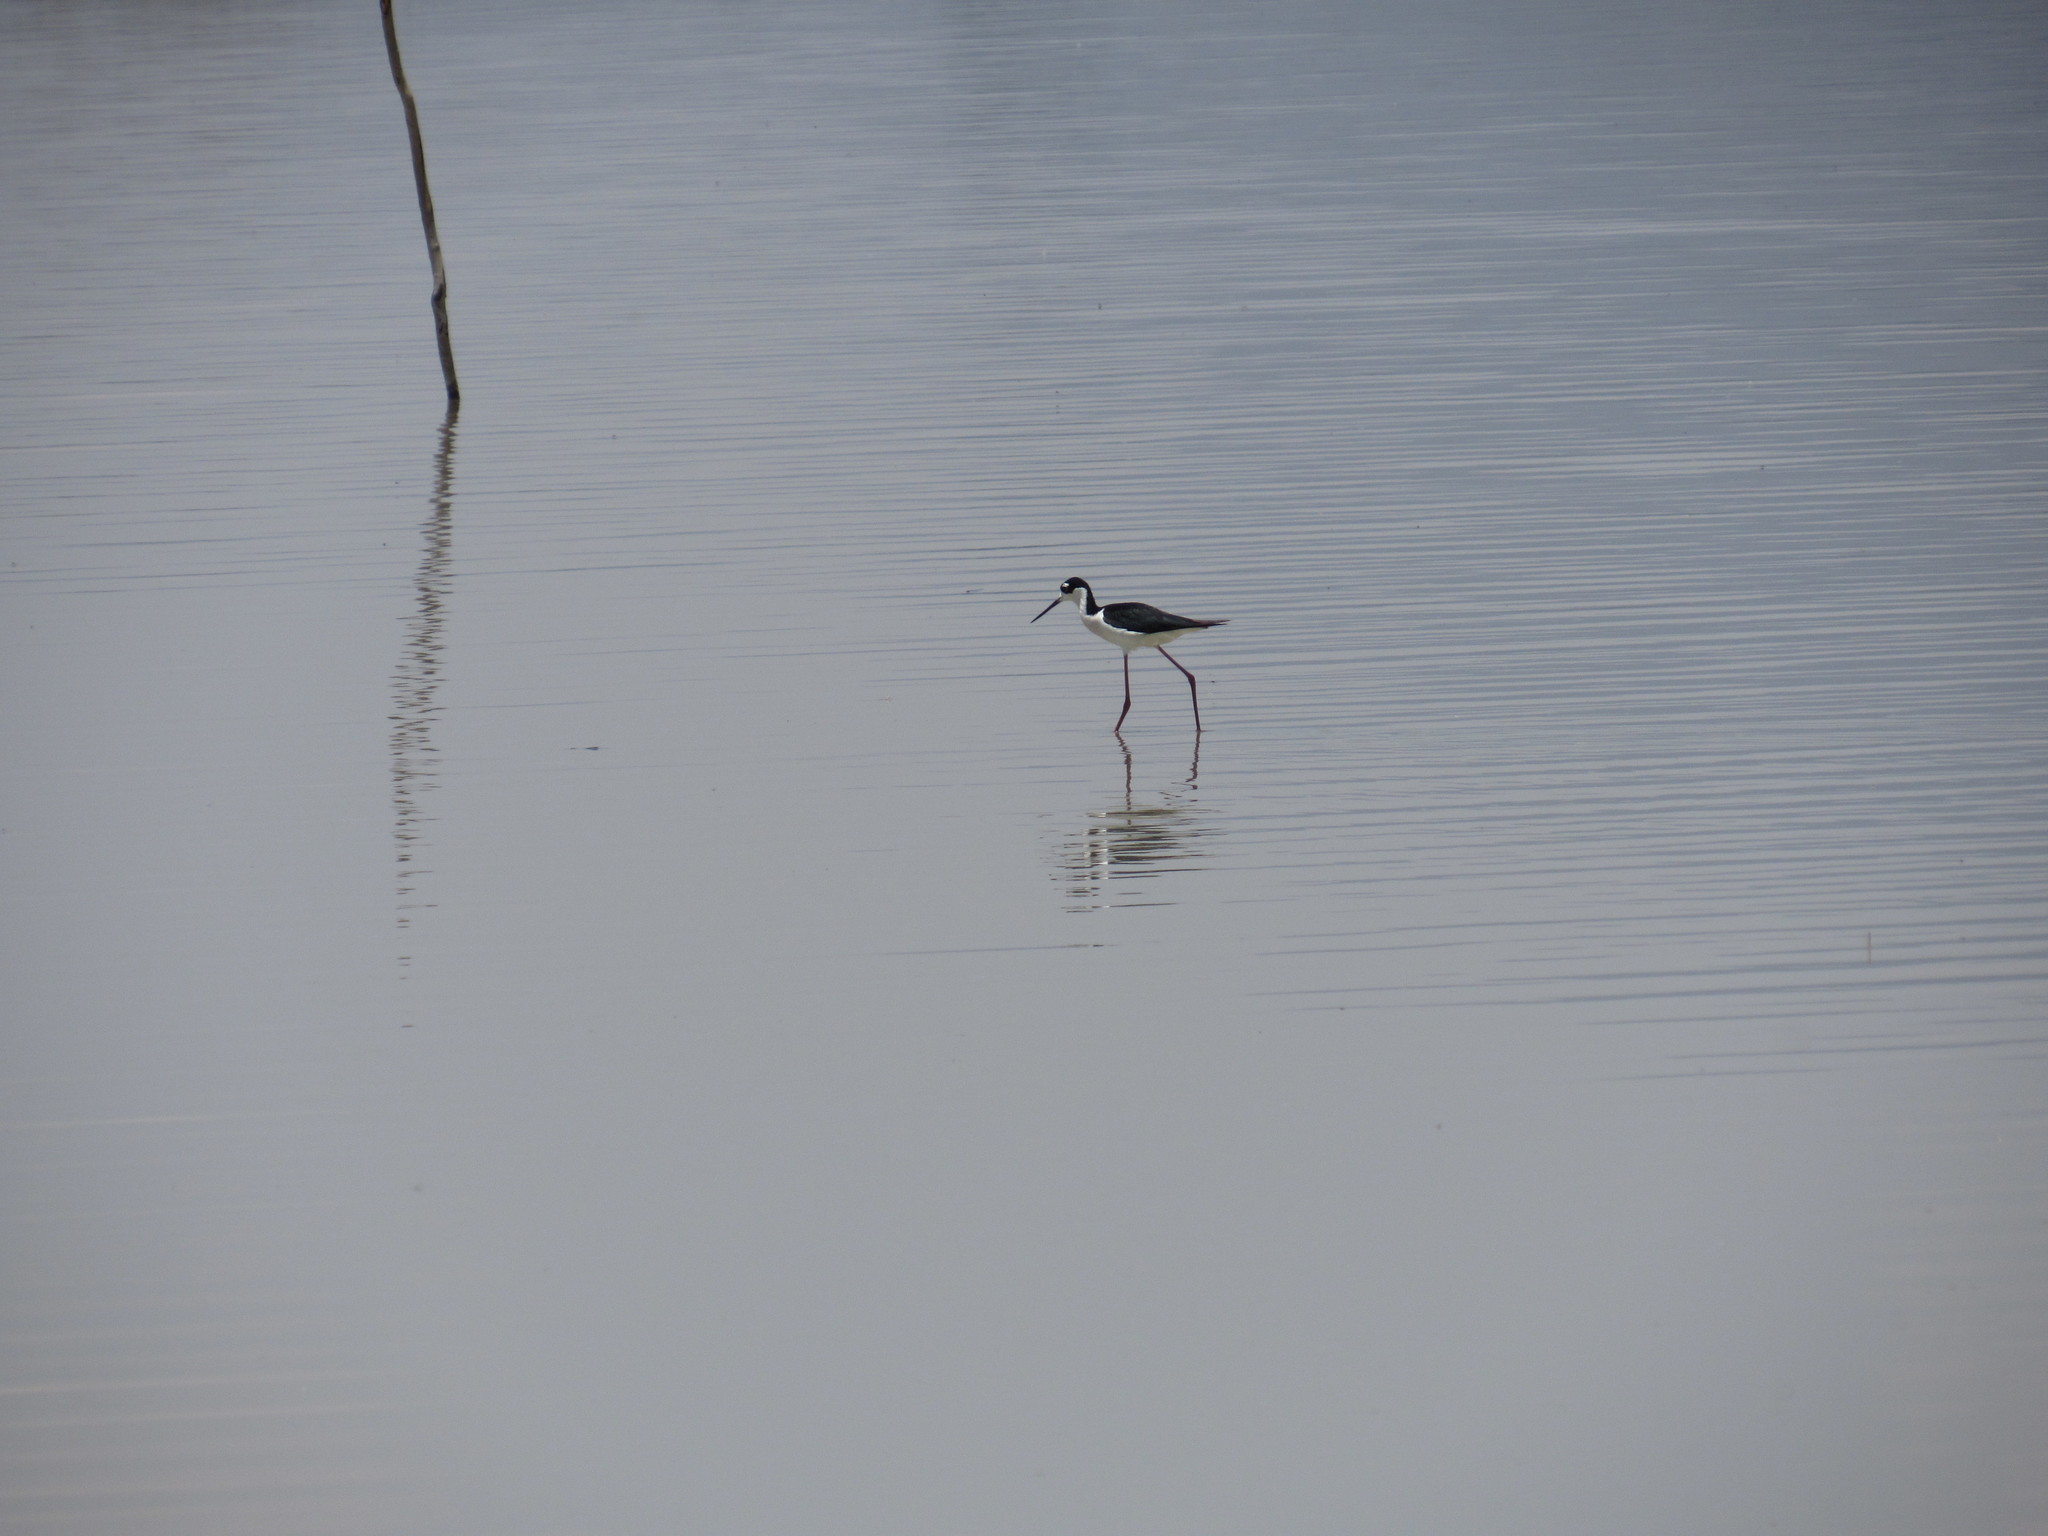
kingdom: Animalia
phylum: Chordata
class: Aves
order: Charadriiformes
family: Recurvirostridae
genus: Himantopus
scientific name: Himantopus mexicanus
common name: Black-necked stilt
